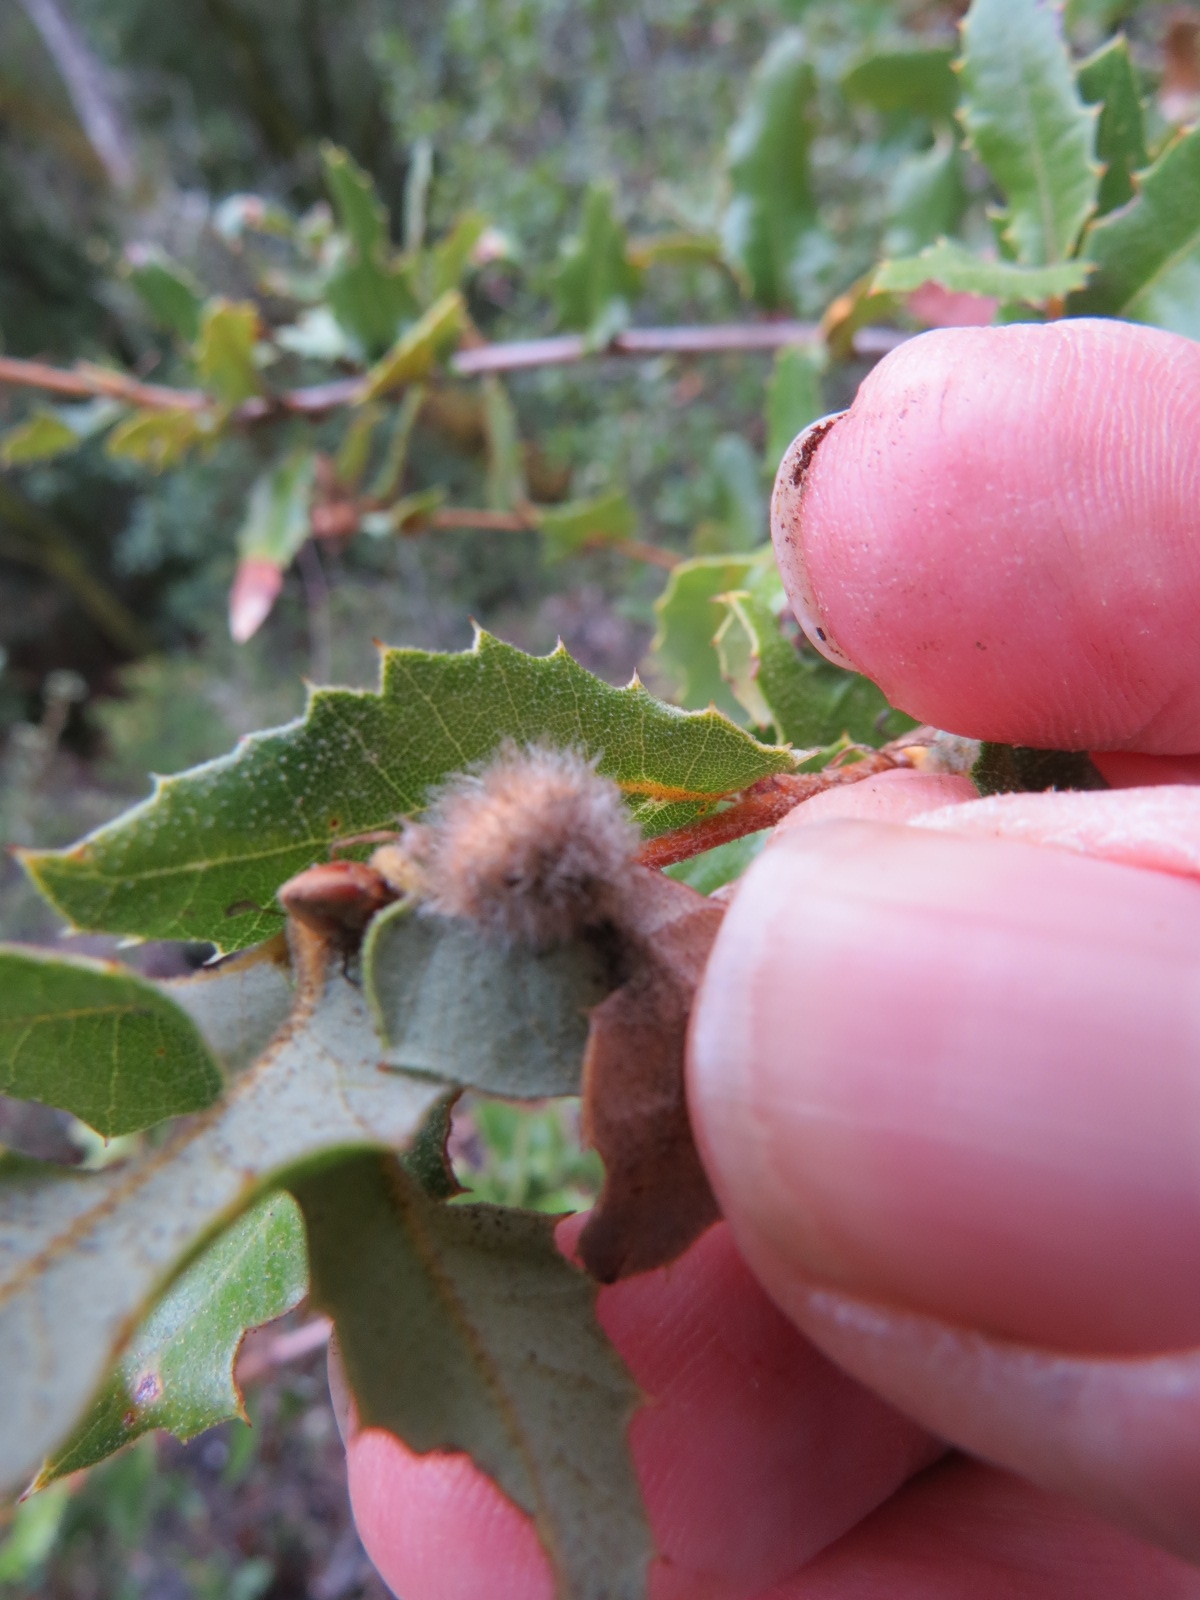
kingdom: Animalia
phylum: Arthropoda
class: Insecta
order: Hymenoptera
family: Cynipidae
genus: Disholandricus
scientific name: Disholandricus
